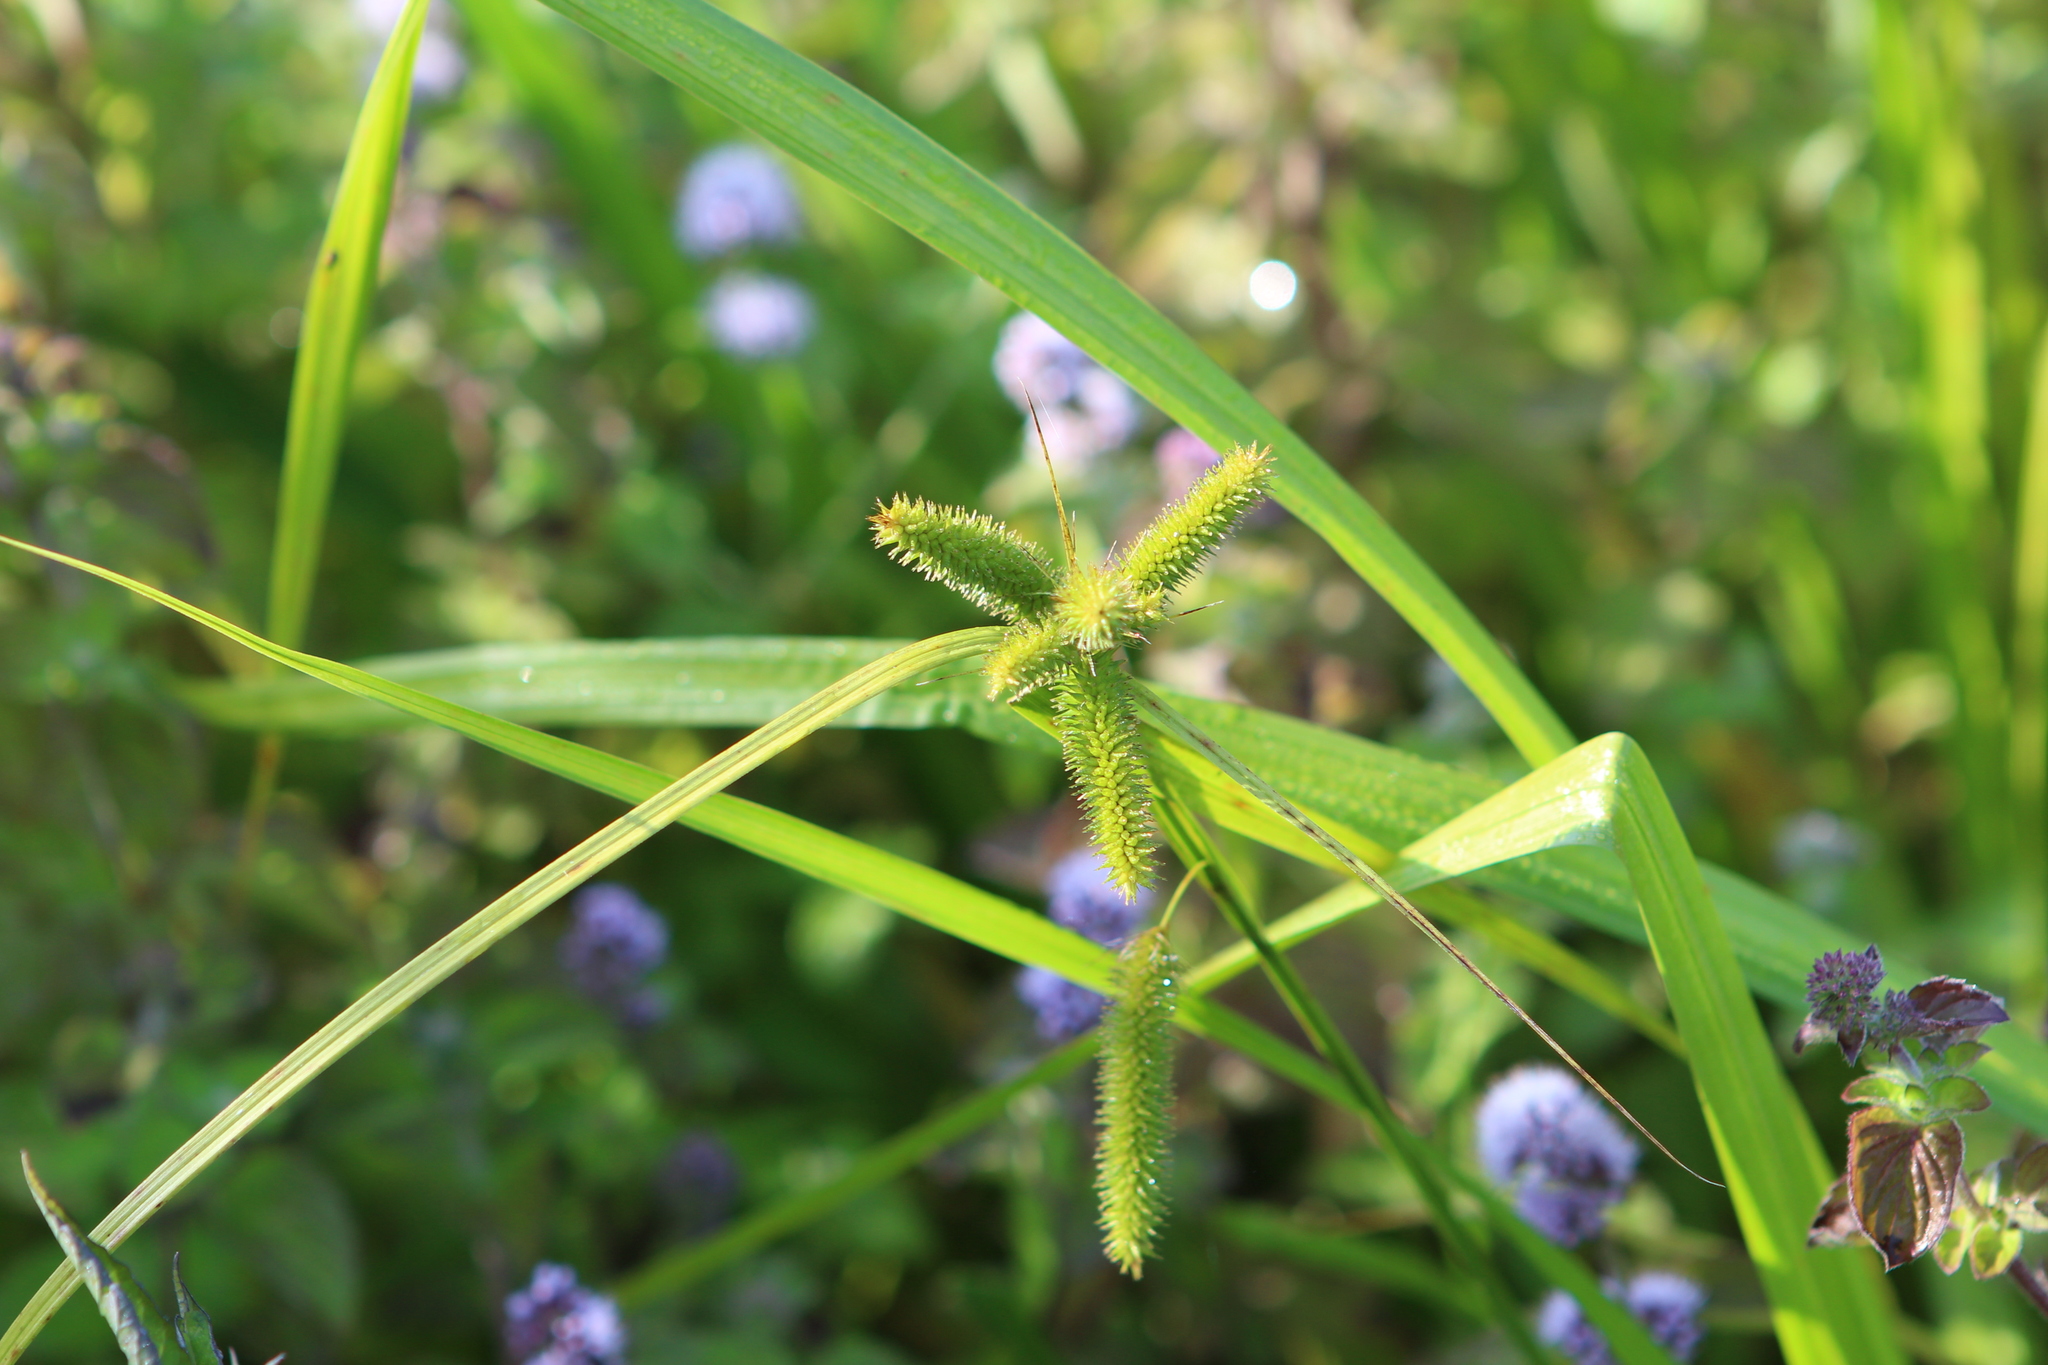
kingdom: Plantae
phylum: Tracheophyta
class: Liliopsida
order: Poales
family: Cyperaceae
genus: Carex
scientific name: Carex pseudocyperus
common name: Cyperus sedge
